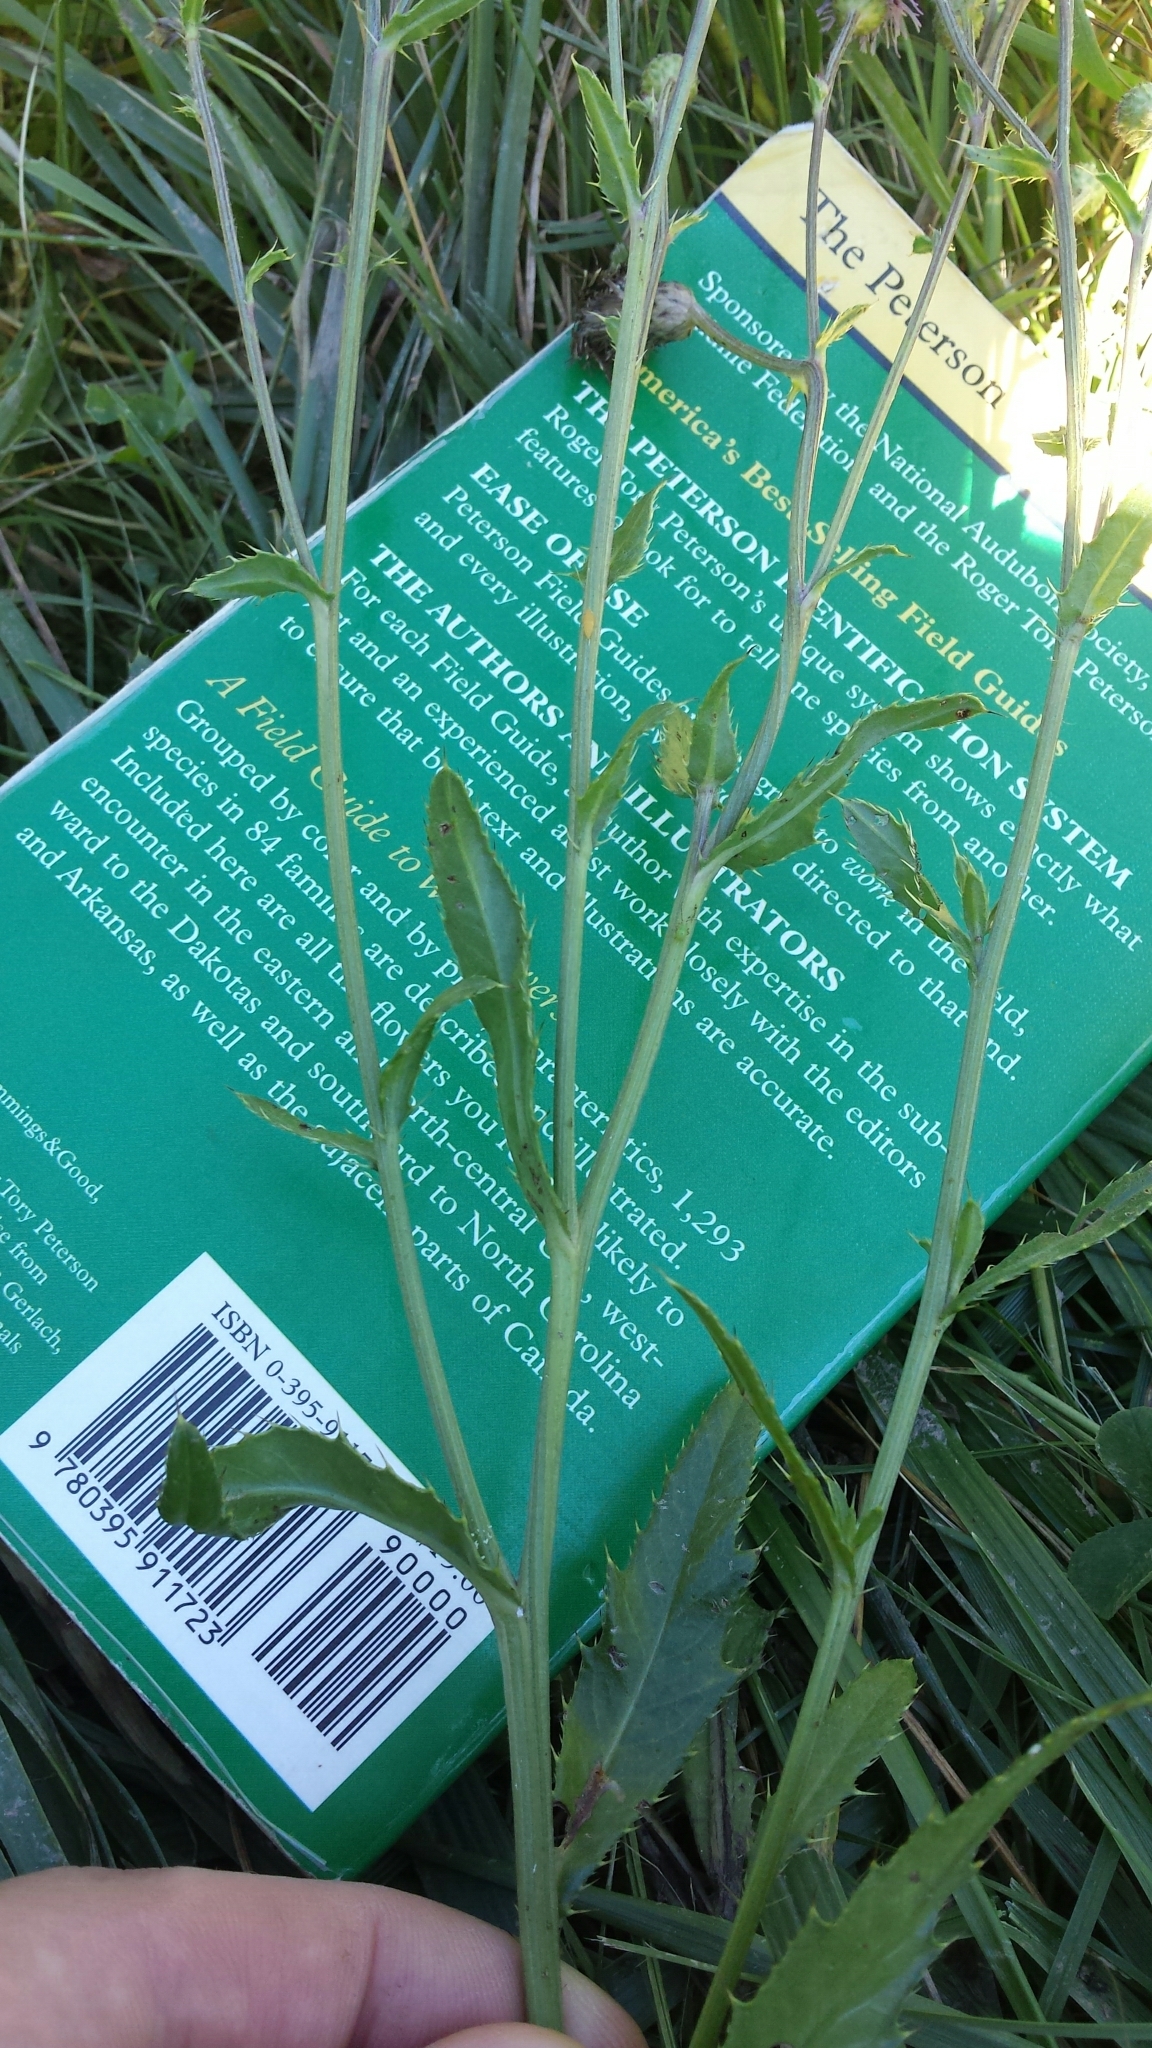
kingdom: Plantae
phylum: Tracheophyta
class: Magnoliopsida
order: Asterales
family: Asteraceae
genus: Cirsium
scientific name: Cirsium arvense
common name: Creeping thistle
